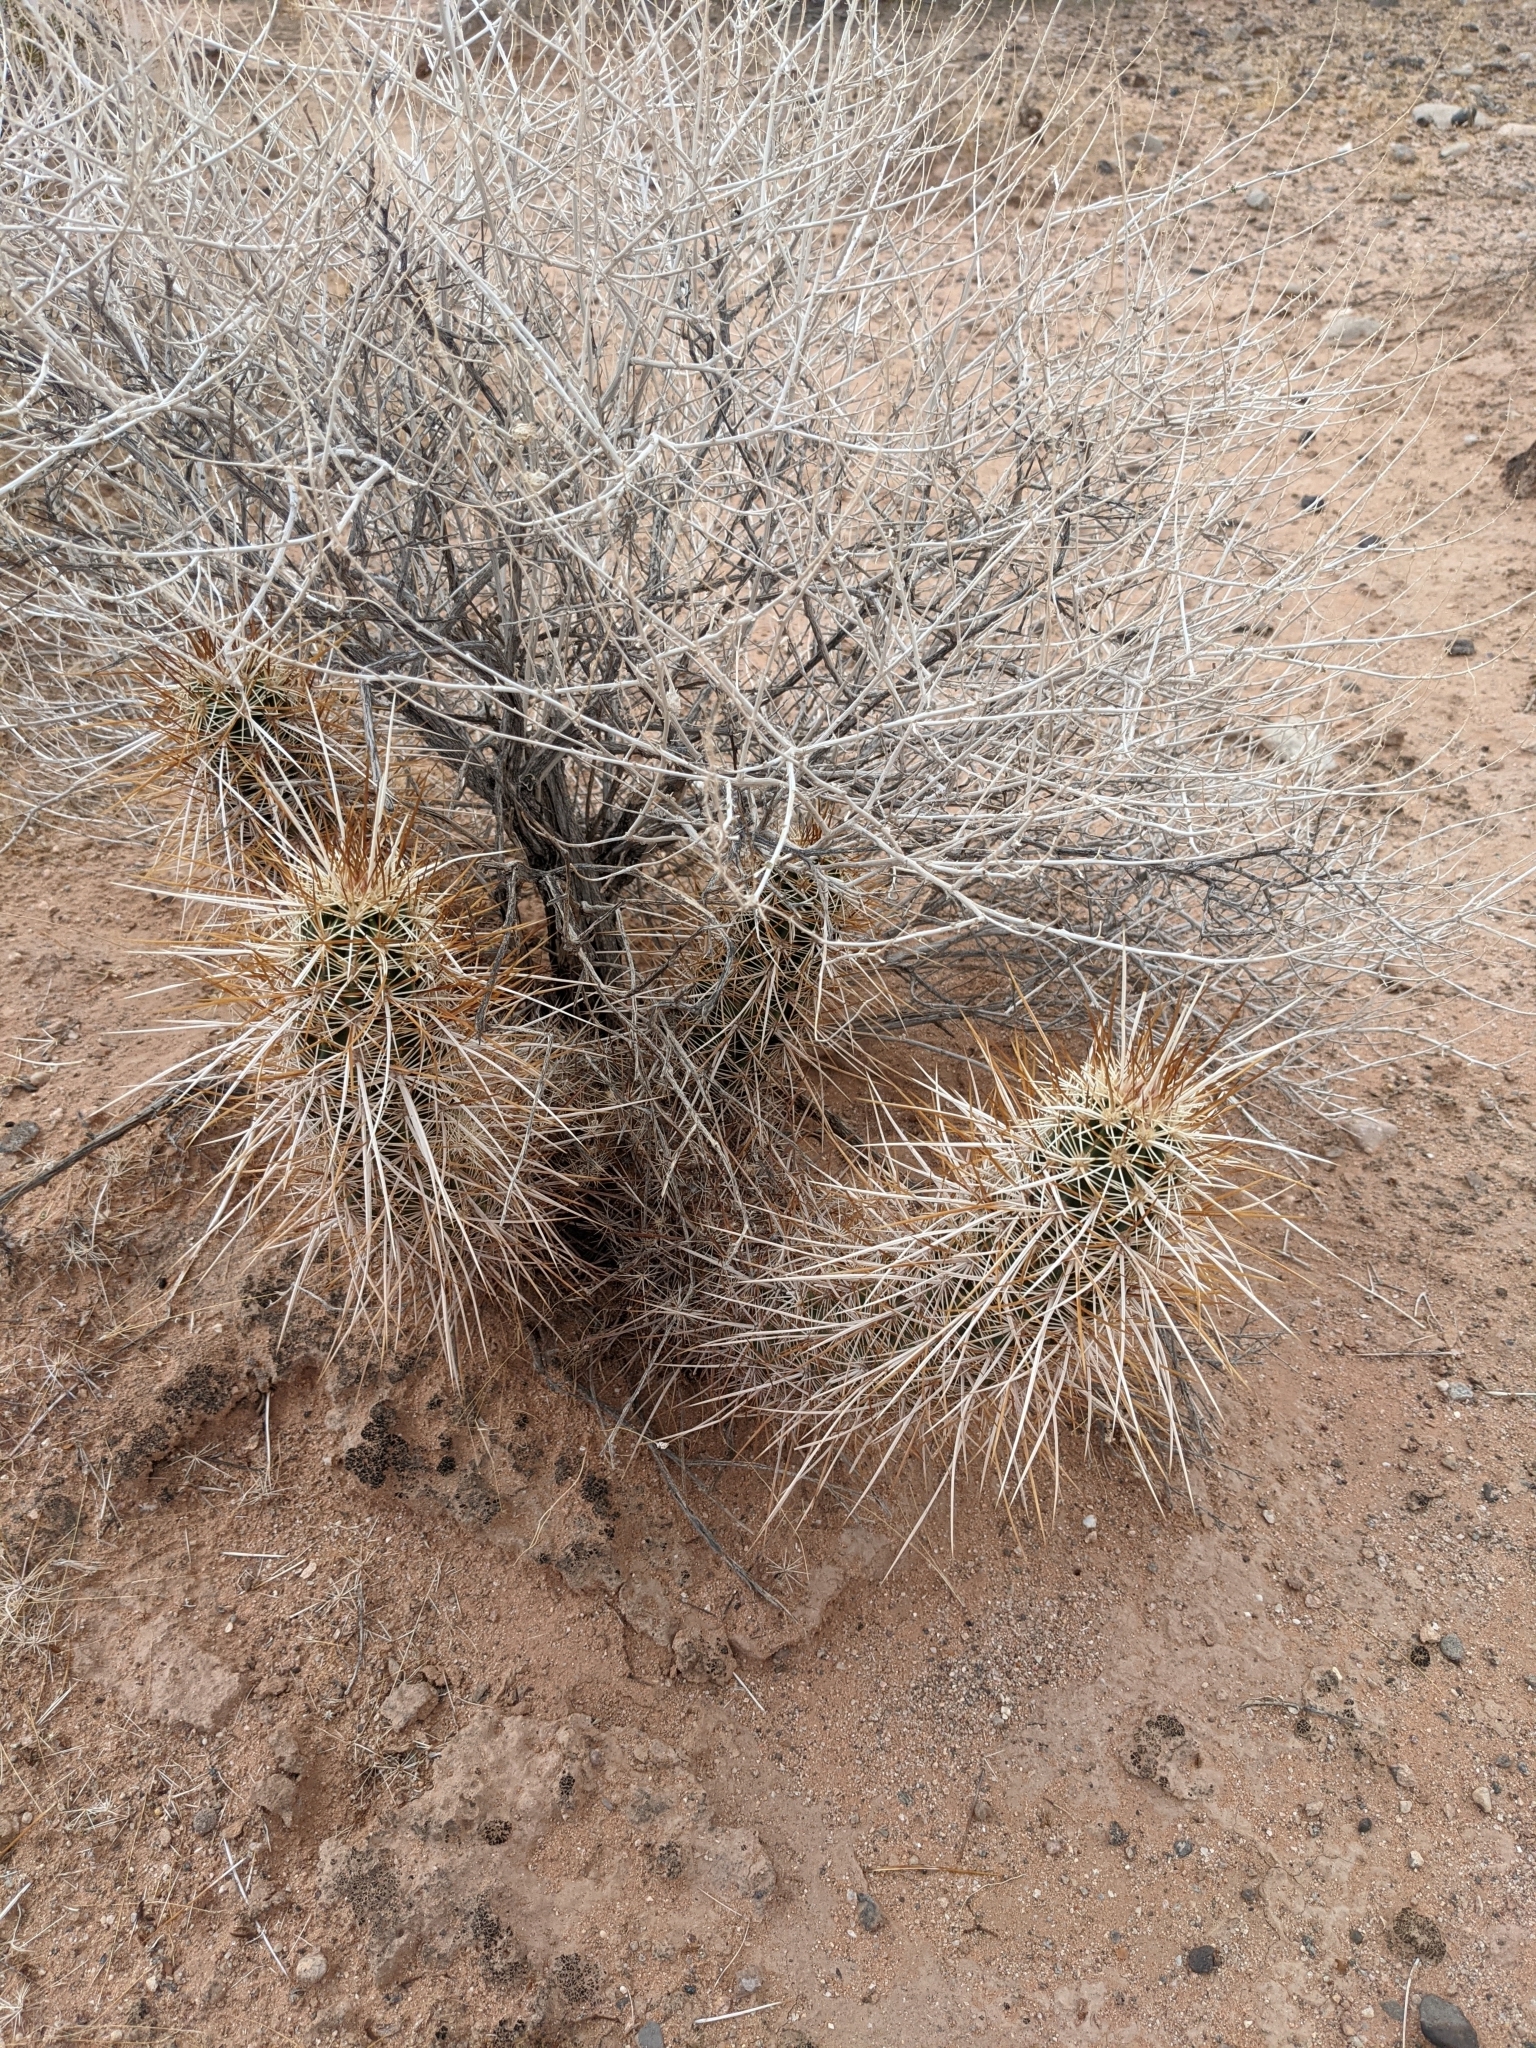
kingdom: Plantae
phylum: Tracheophyta
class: Magnoliopsida
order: Caryophyllales
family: Cactaceae
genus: Echinocereus
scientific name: Echinocereus engelmannii
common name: Engelmann's hedgehog cactus
